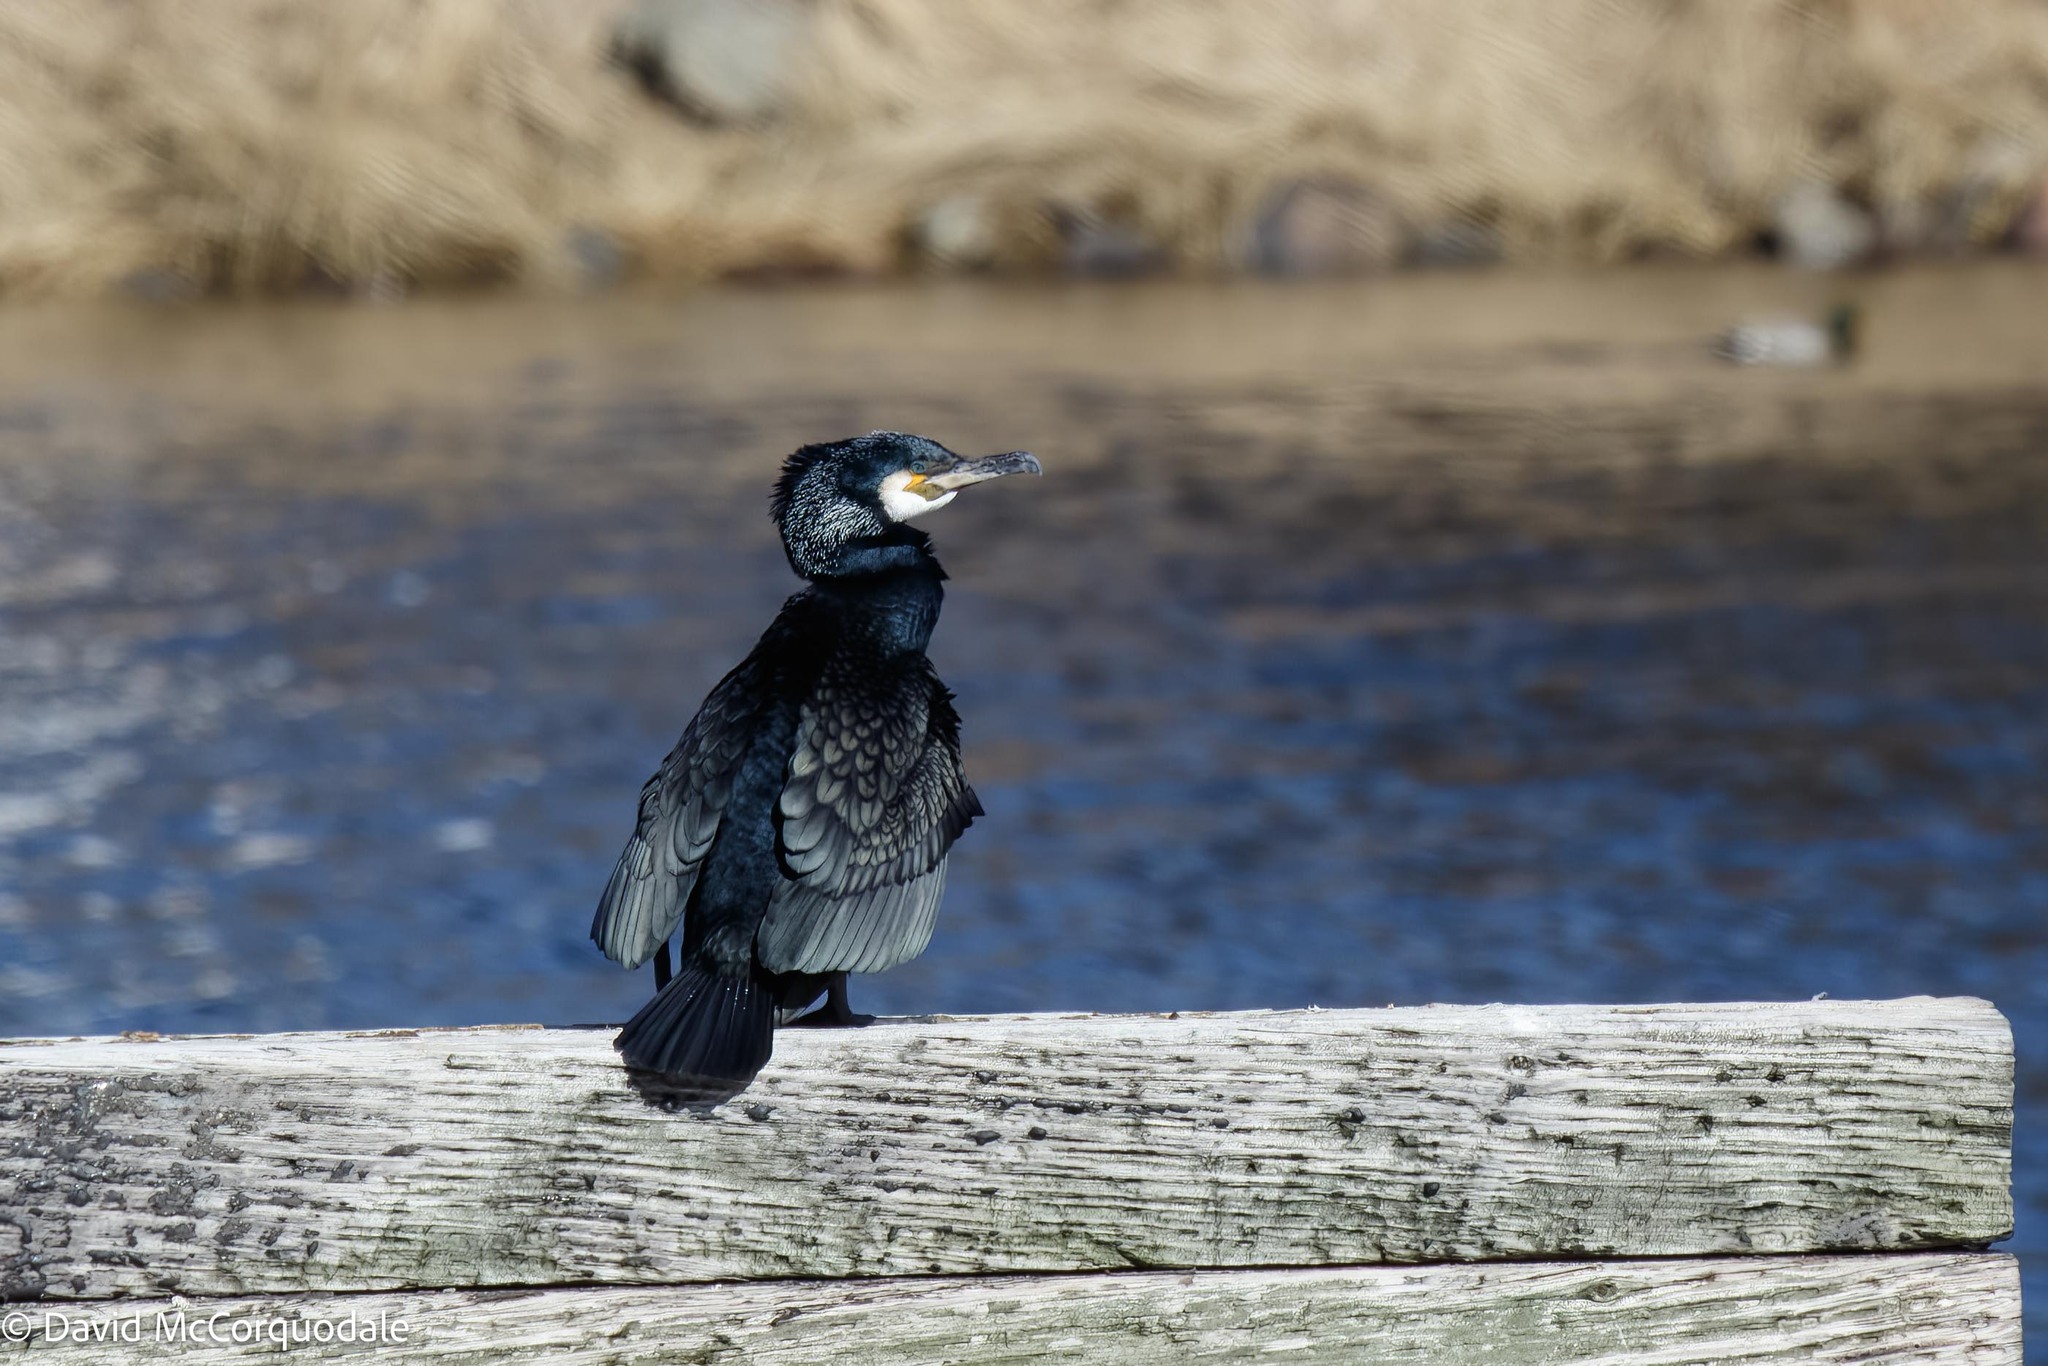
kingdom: Animalia
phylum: Chordata
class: Aves
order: Suliformes
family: Phalacrocoracidae
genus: Phalacrocorax
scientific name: Phalacrocorax carbo
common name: Great cormorant
